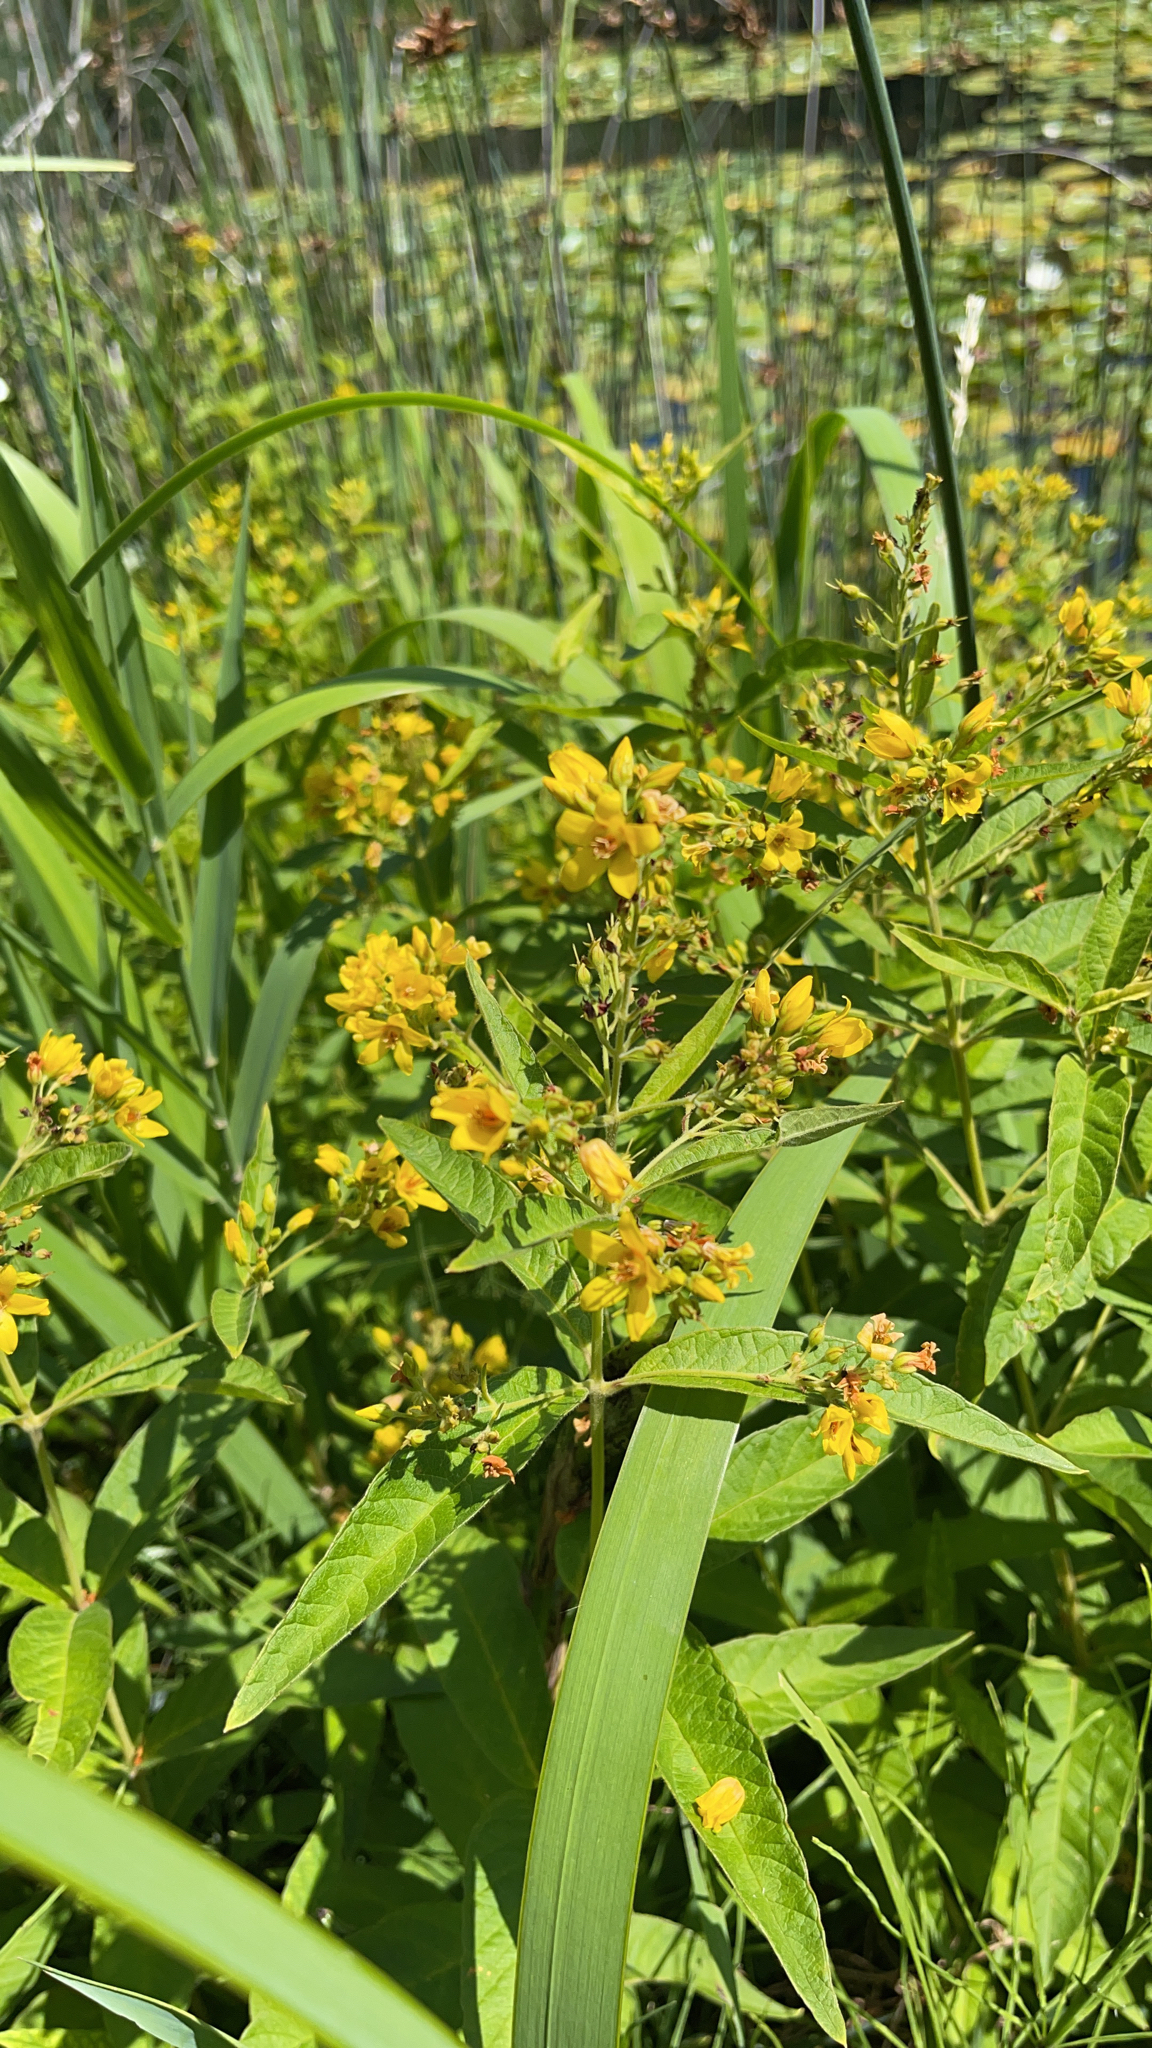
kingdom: Plantae
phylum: Tracheophyta
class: Magnoliopsida
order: Ericales
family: Primulaceae
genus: Lysimachia
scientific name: Lysimachia vulgaris
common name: Yellow loosestrife
